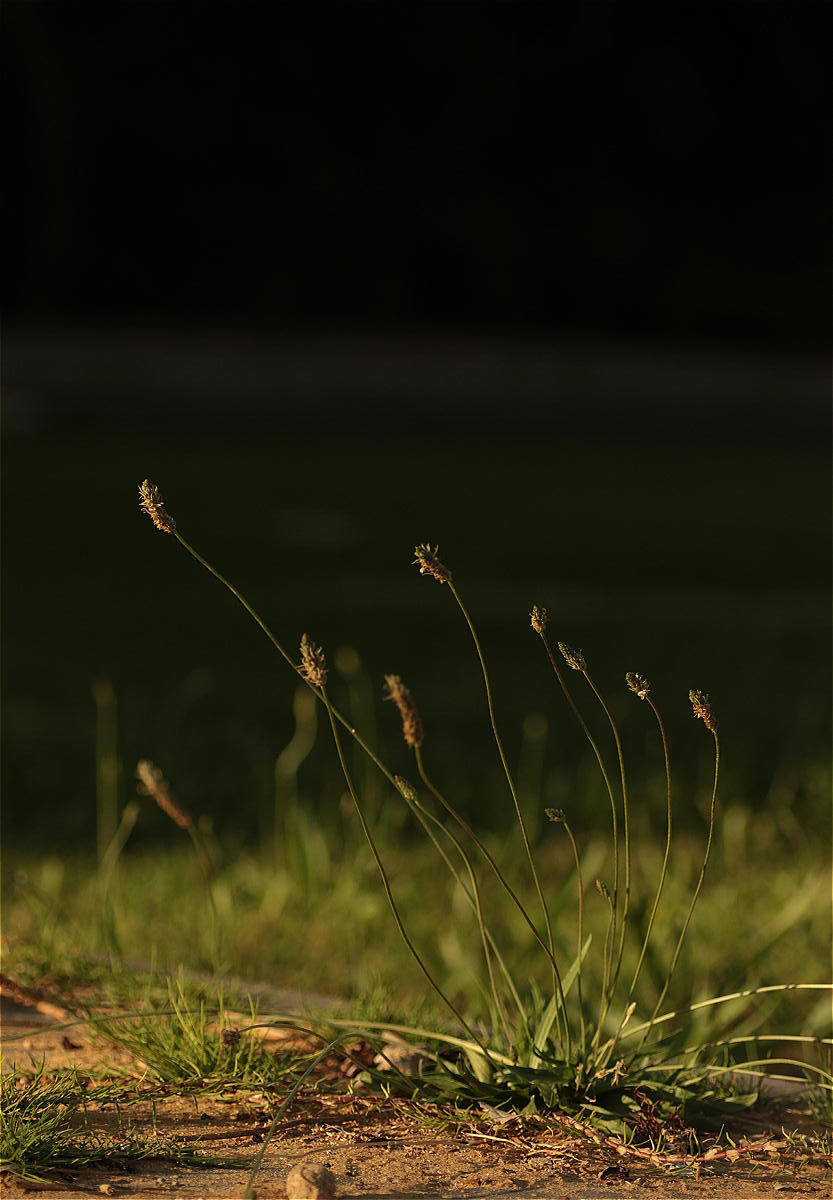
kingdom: Plantae
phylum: Tracheophyta
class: Magnoliopsida
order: Lamiales
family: Plantaginaceae
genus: Plantago
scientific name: Plantago lanceolata
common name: Ribwort plantain
